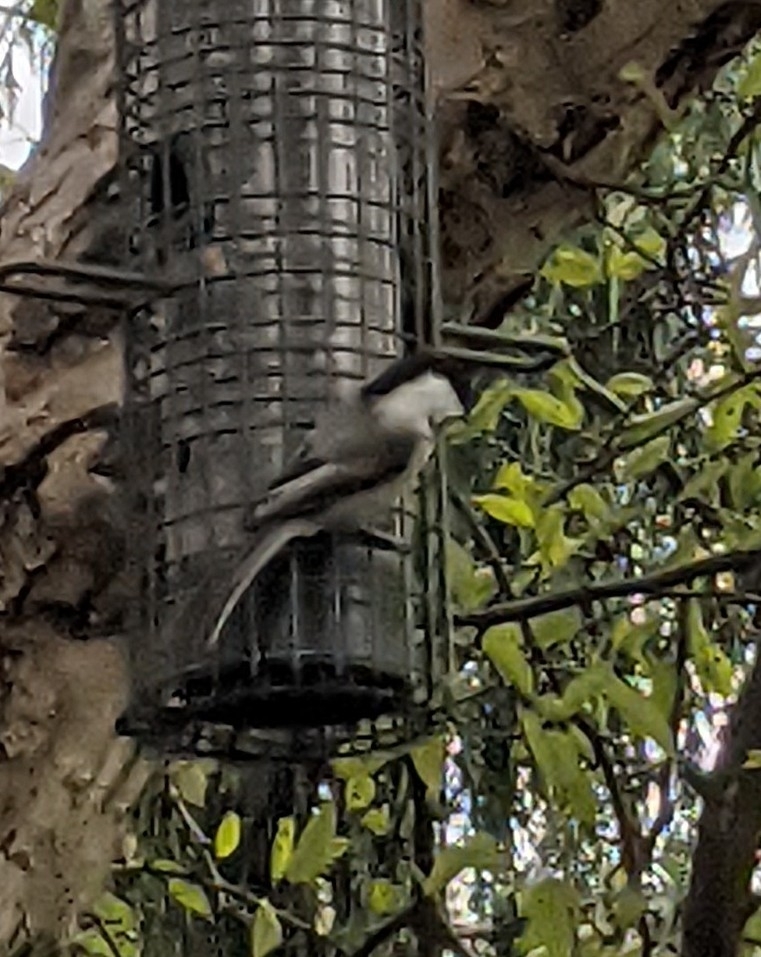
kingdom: Animalia
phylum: Chordata
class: Aves
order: Passeriformes
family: Paridae
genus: Poecile
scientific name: Poecile atricapillus
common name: Black-capped chickadee
